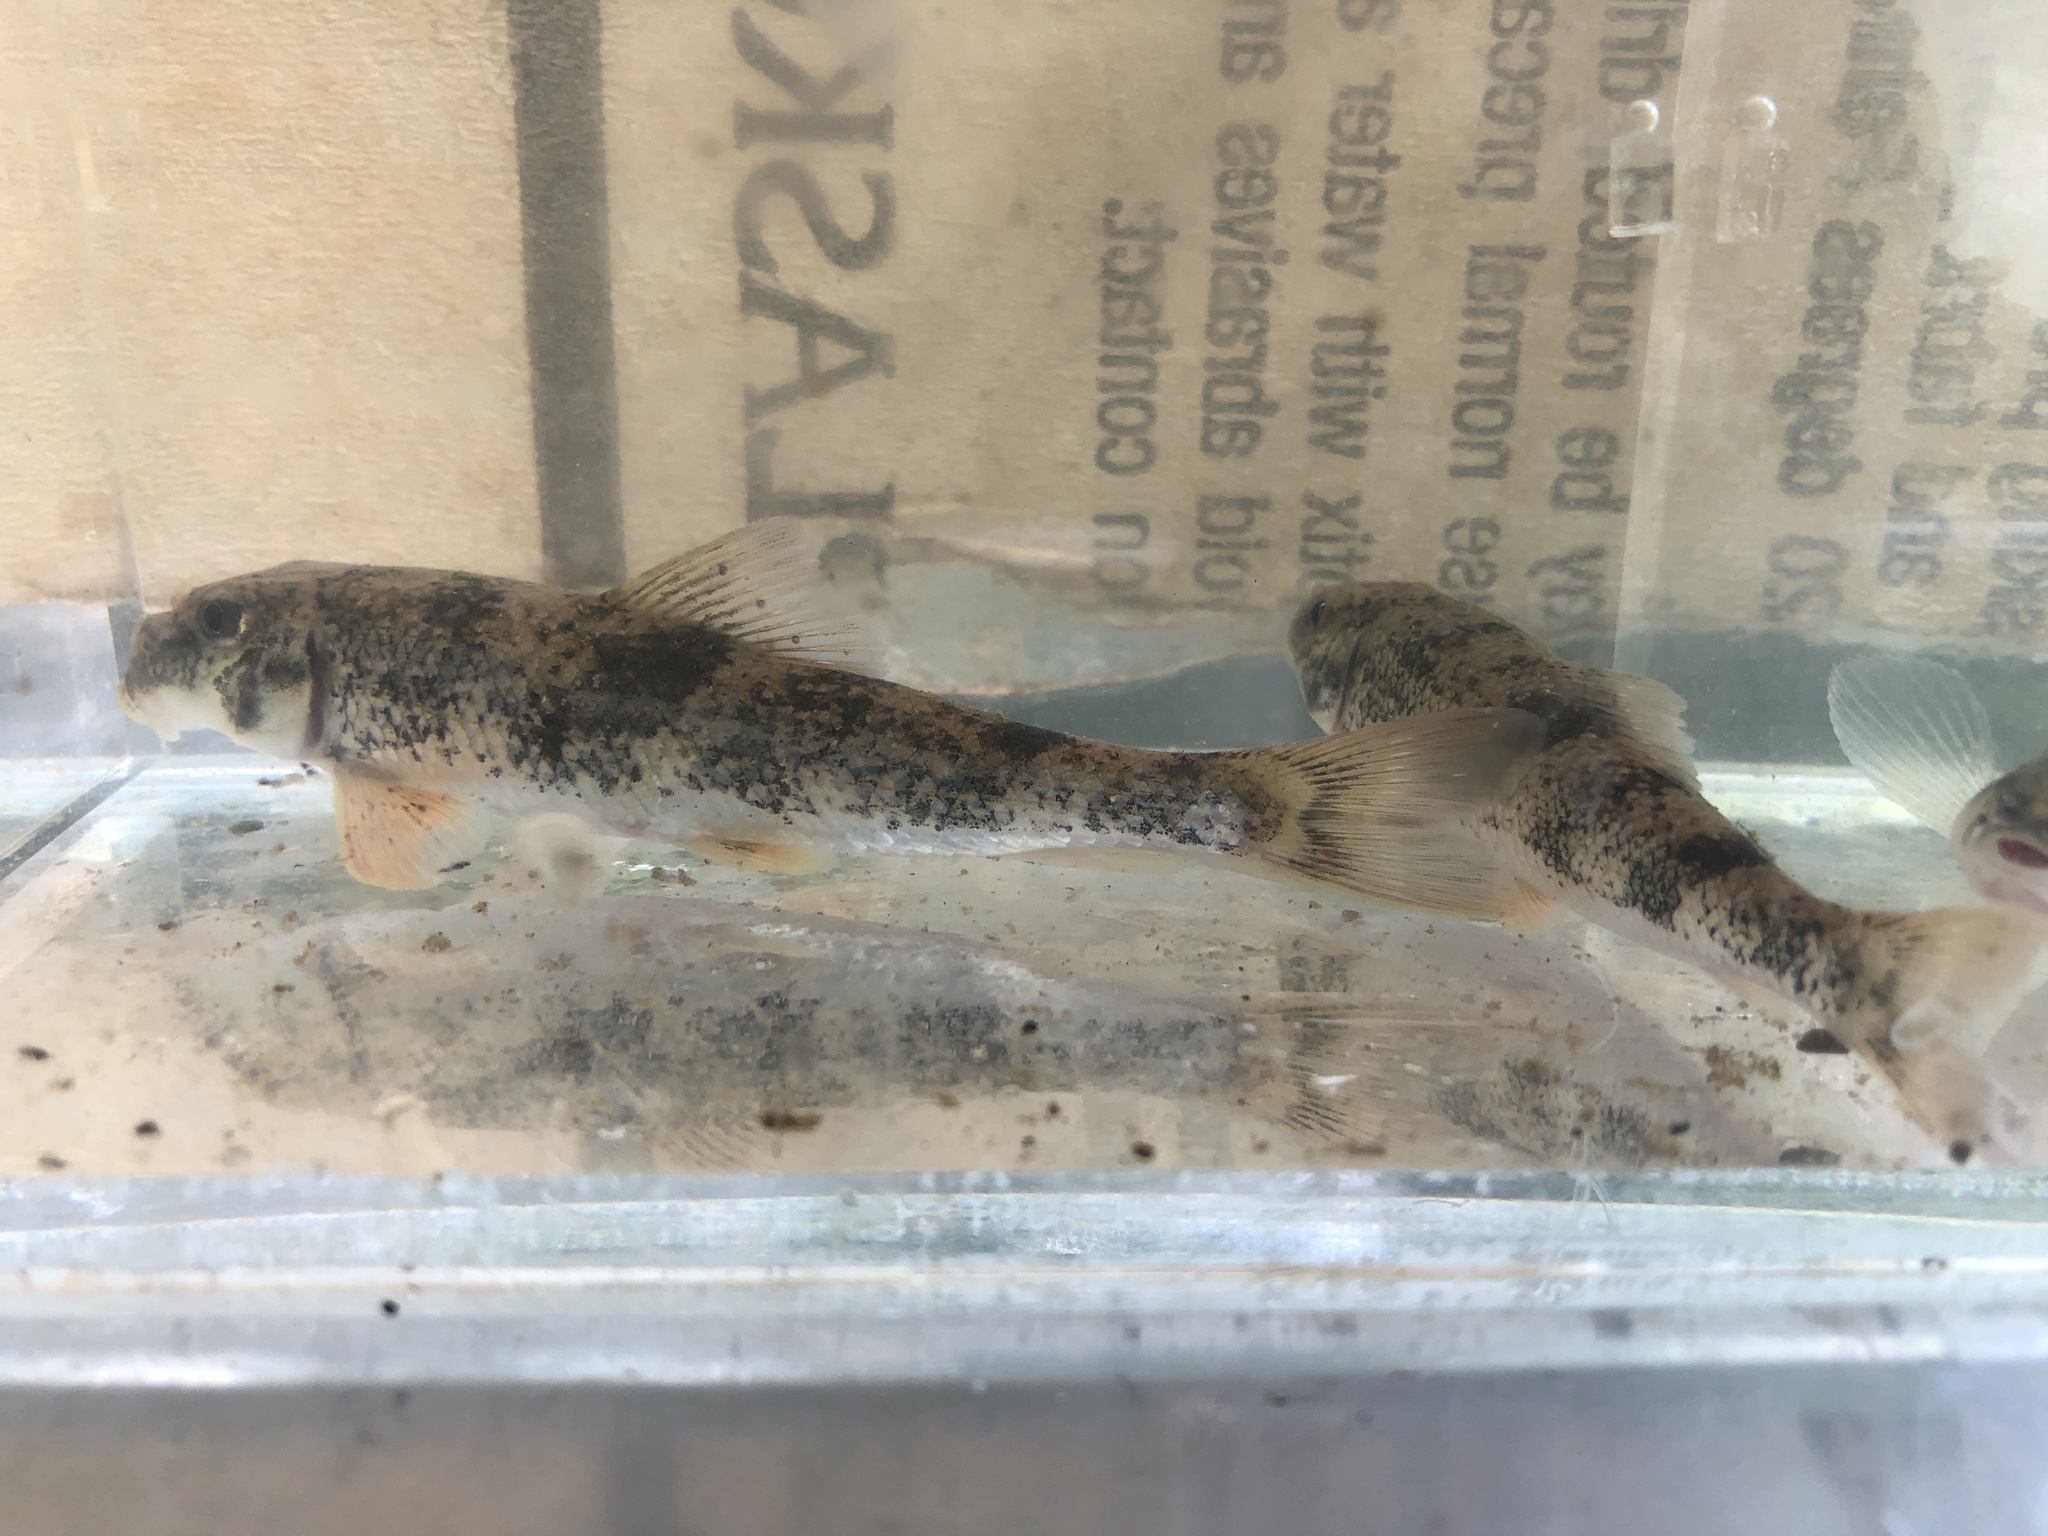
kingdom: Animalia
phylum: Chordata
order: Cypriniformes
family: Catostomidae
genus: Hypentelium
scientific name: Hypentelium nigricans
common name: Northern hog sucker
